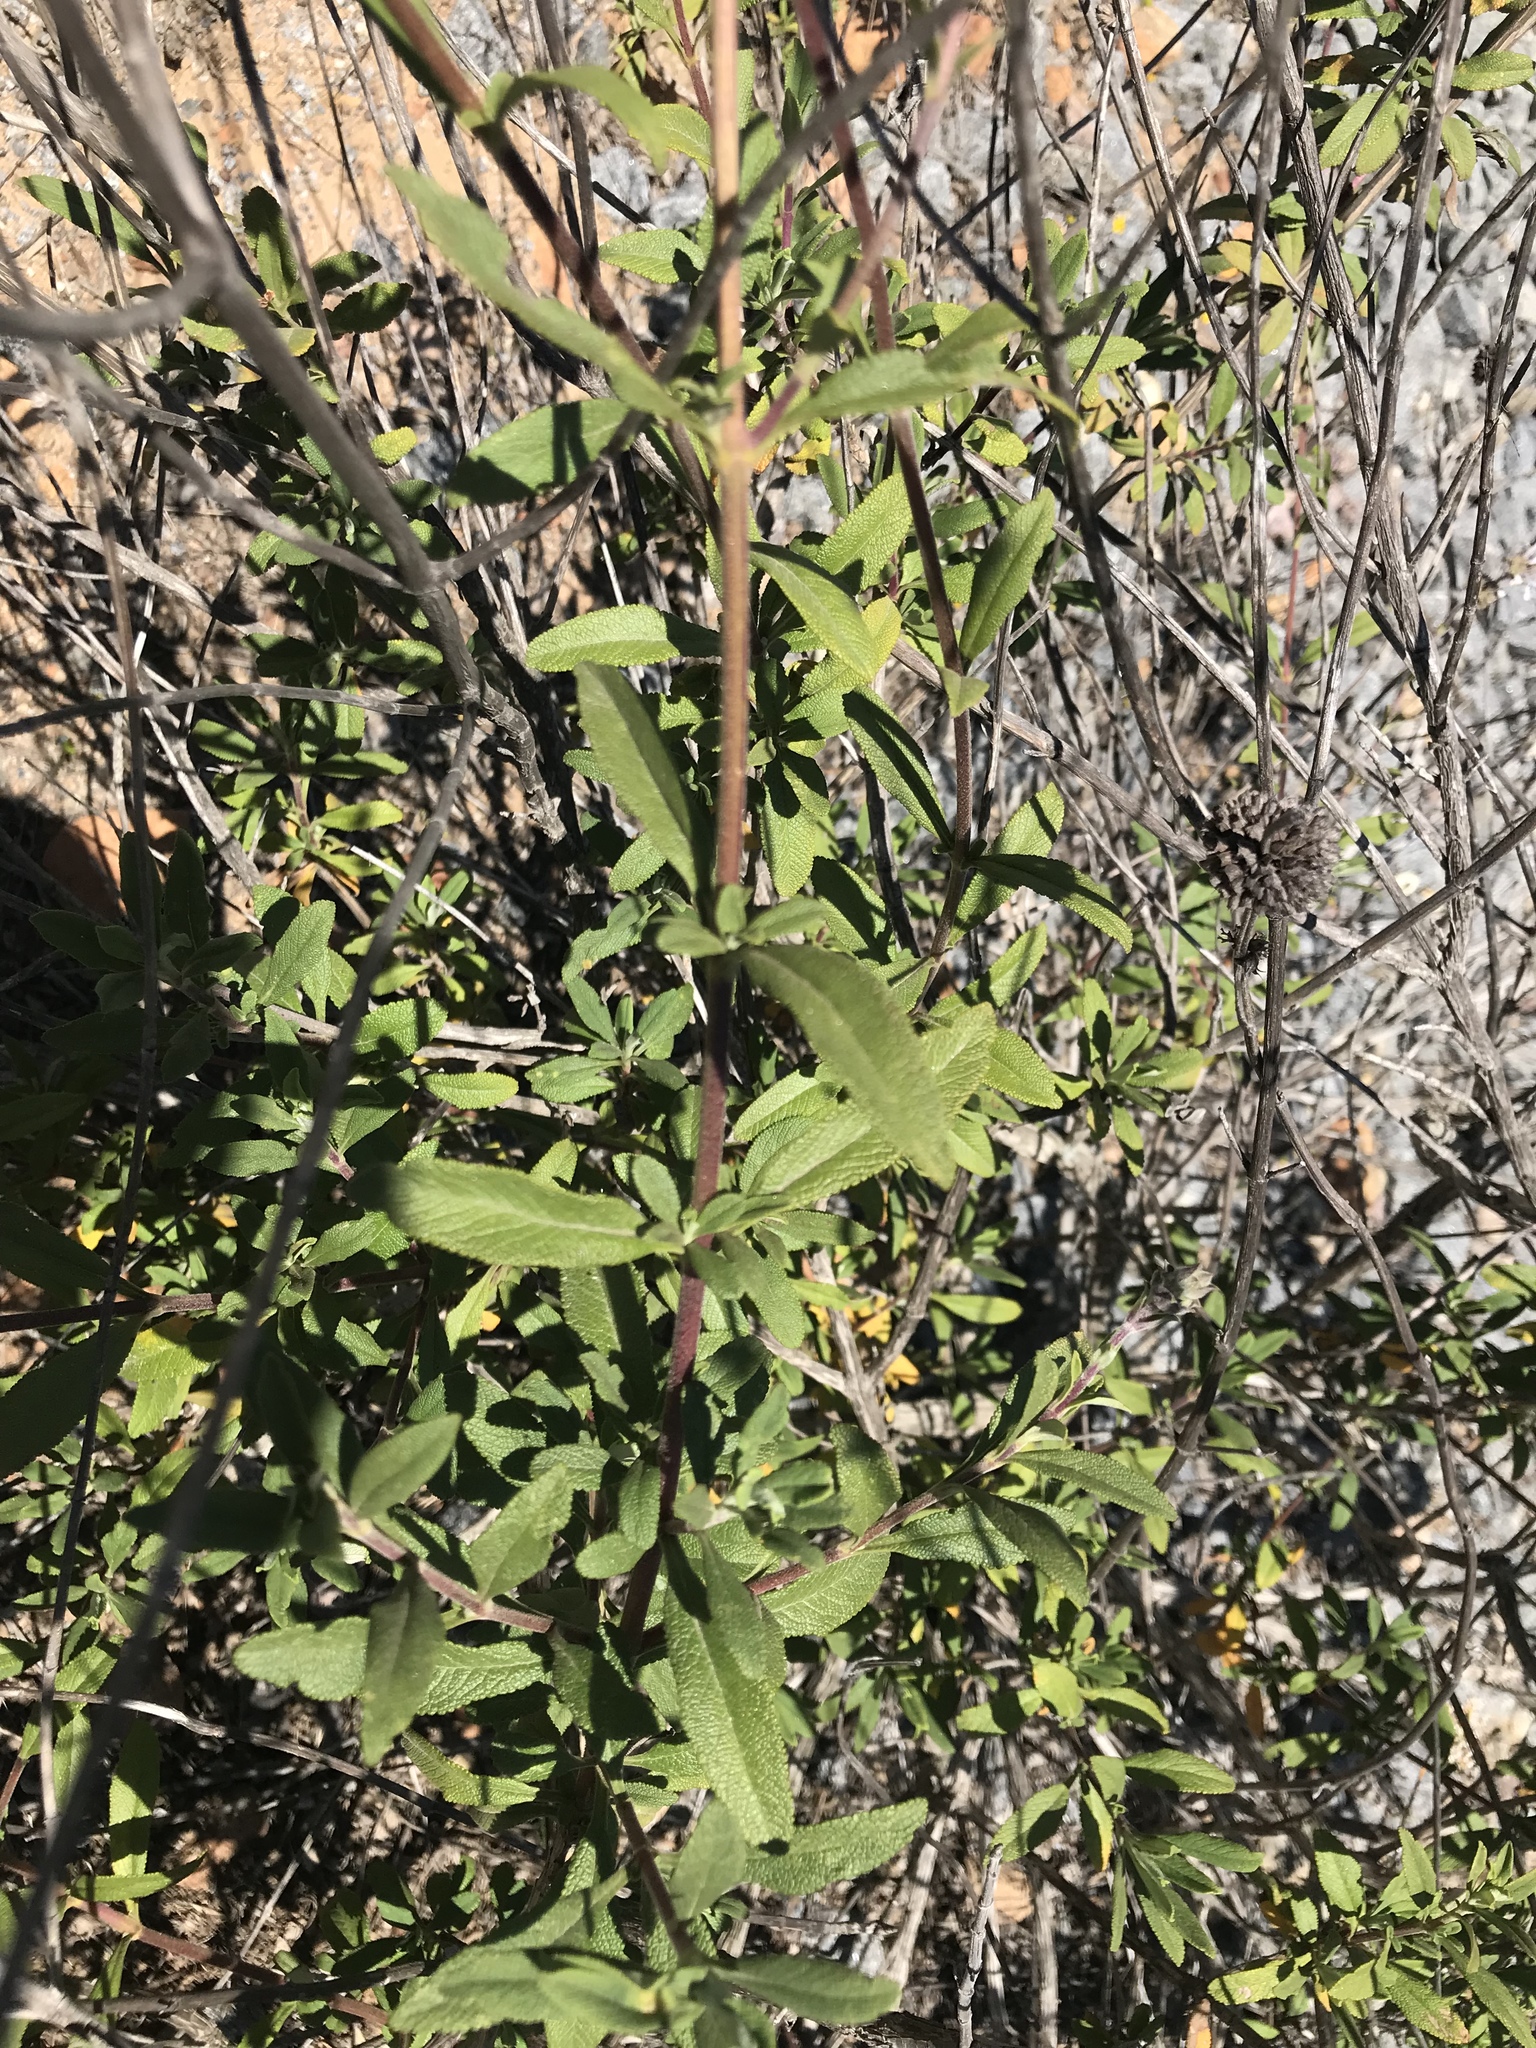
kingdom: Plantae
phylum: Tracheophyta
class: Magnoliopsida
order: Lamiales
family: Lamiaceae
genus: Salvia
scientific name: Salvia mellifera
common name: Black sage
